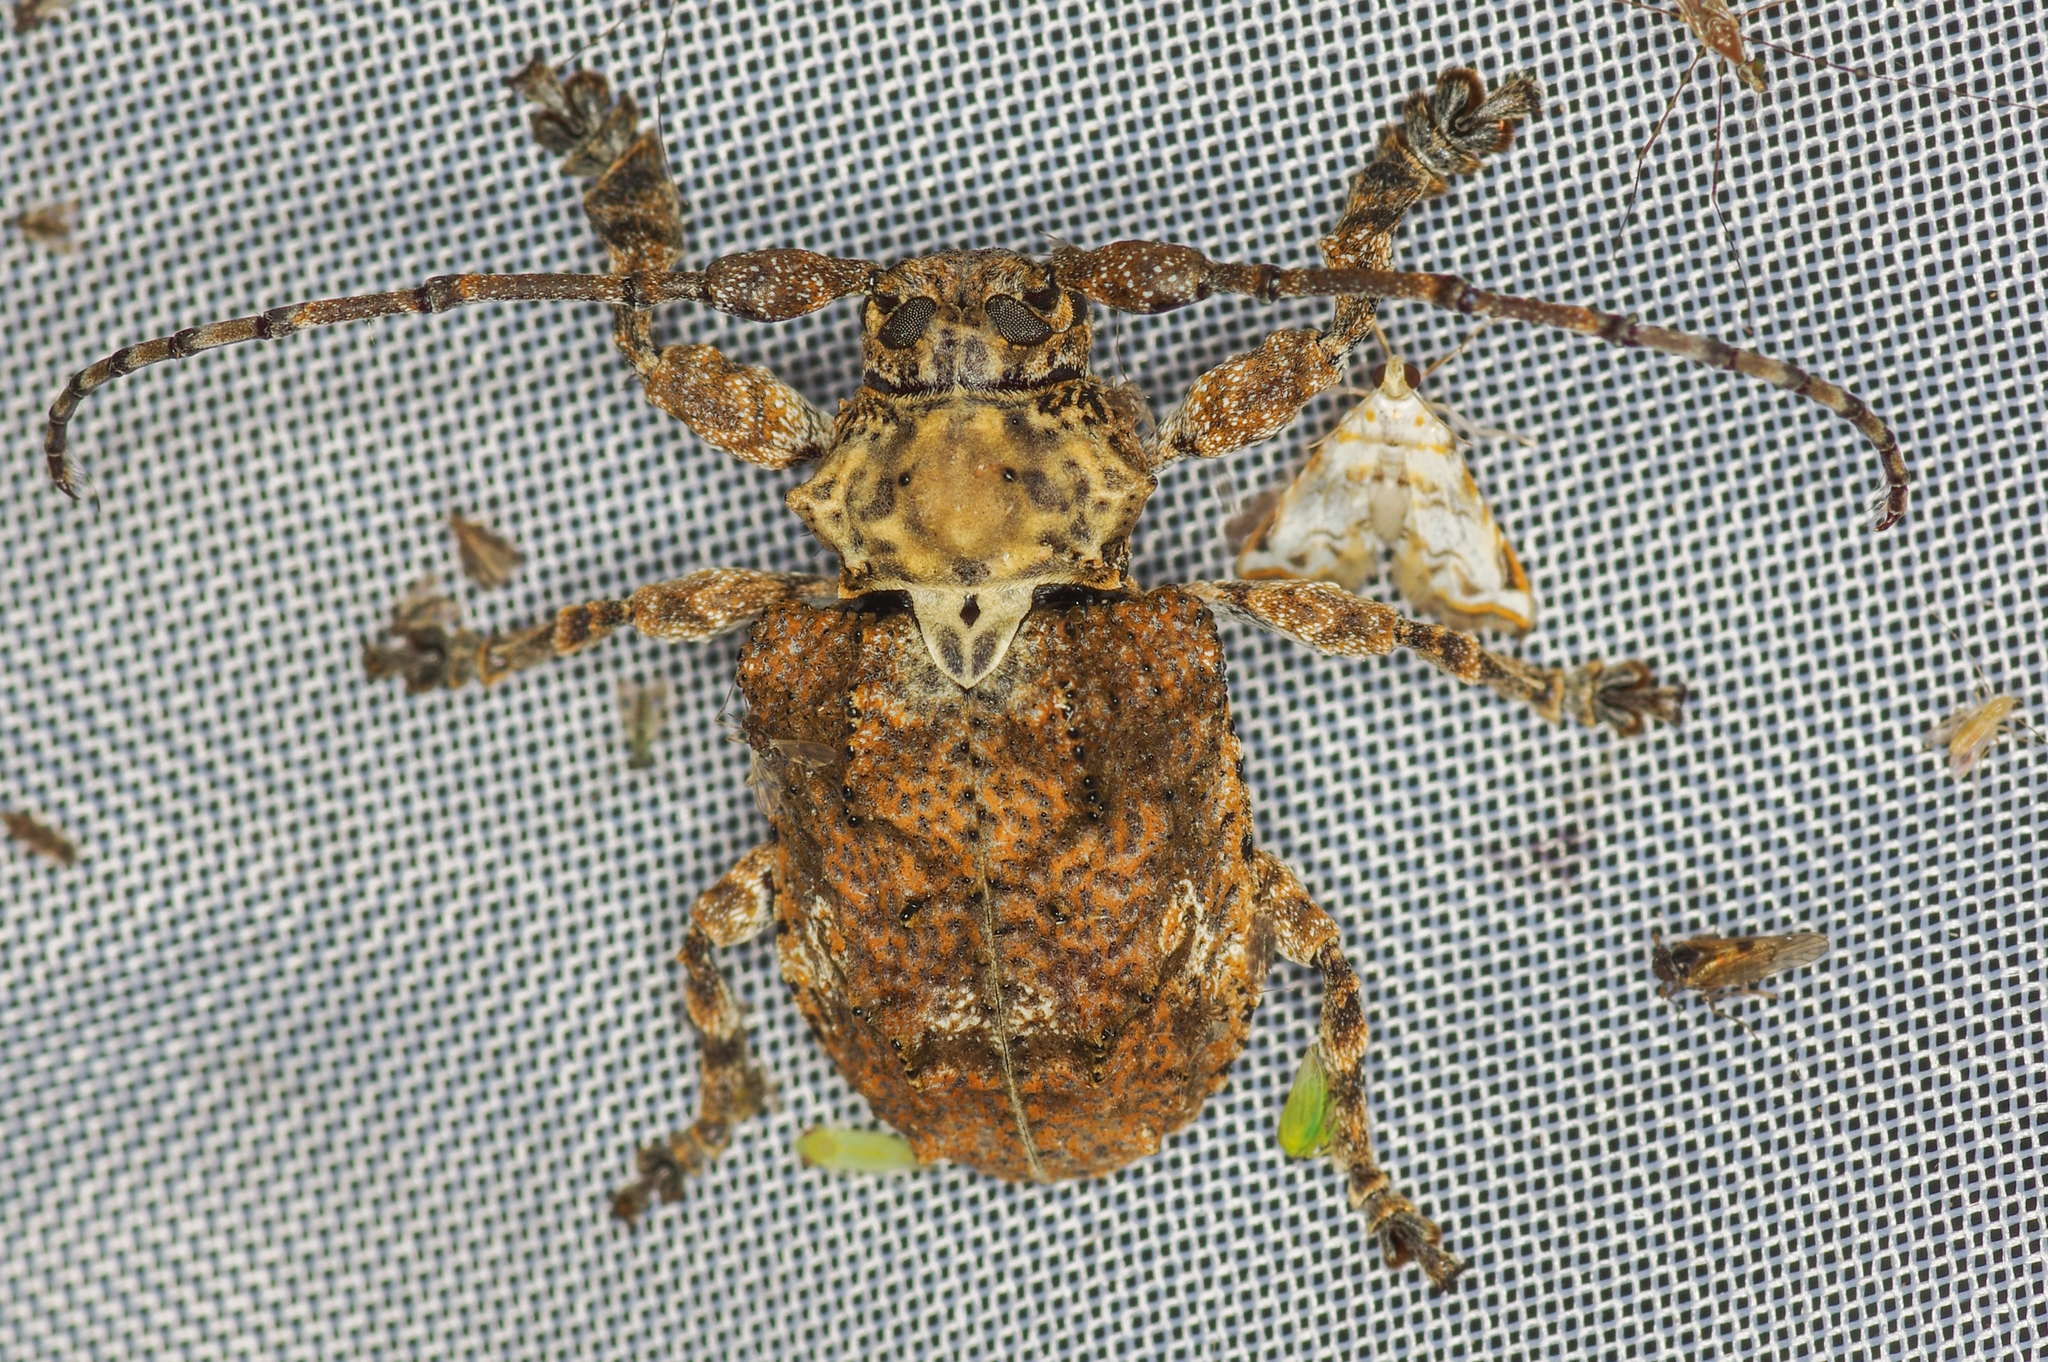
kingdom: Animalia
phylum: Arthropoda
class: Insecta
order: Coleoptera
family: Cerambycidae
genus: Onychocerus
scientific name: Onychocerus crassus
